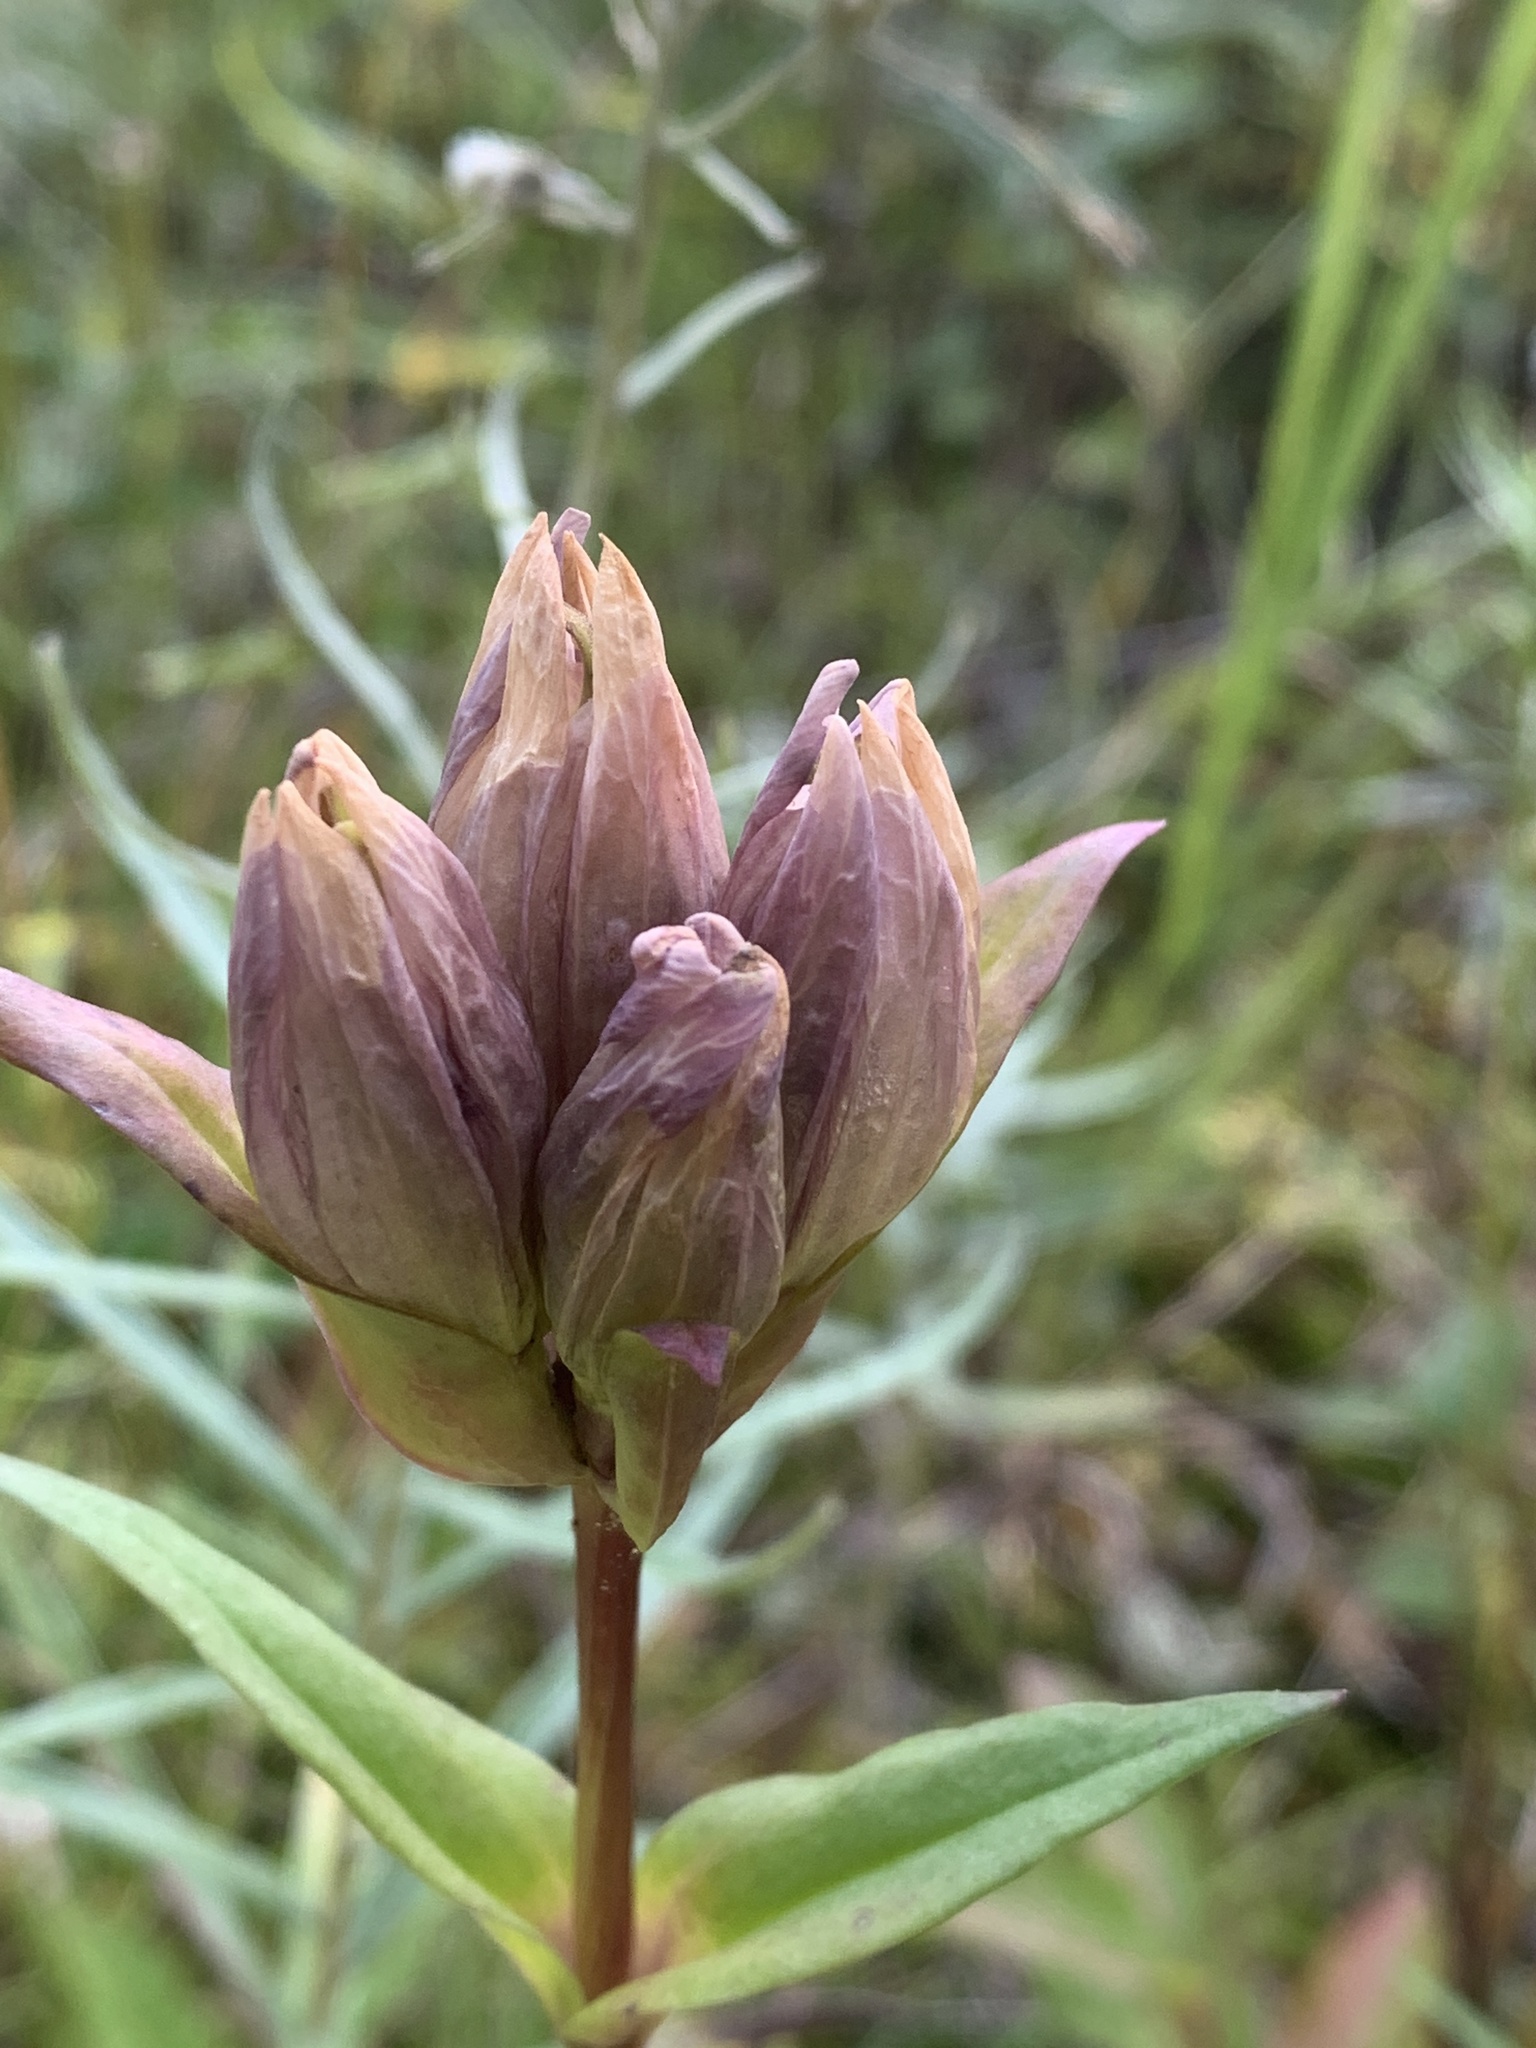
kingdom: Plantae
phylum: Tracheophyta
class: Magnoliopsida
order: Gentianales
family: Gentianaceae
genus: Gentiana
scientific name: Gentiana rubricaulis
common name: Purple-stemmed gentian
